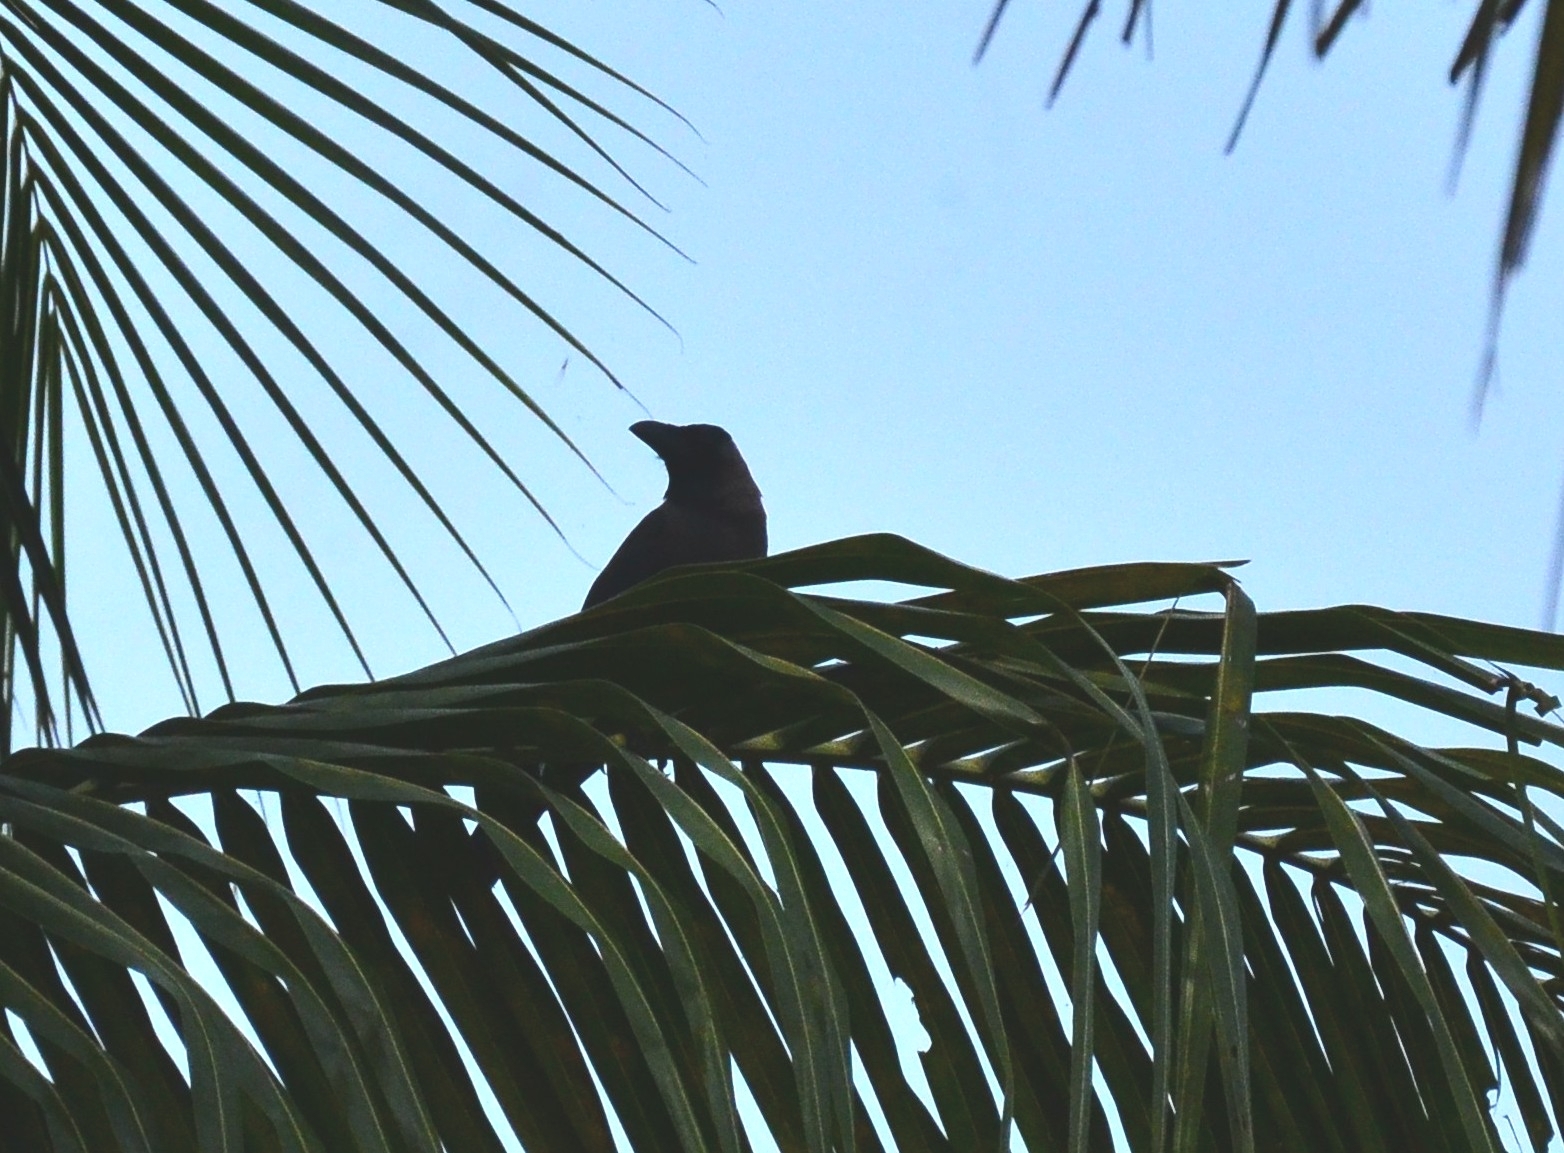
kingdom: Animalia
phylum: Chordata
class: Aves
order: Passeriformes
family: Corvidae
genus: Corvus
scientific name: Corvus splendens
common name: House crow
